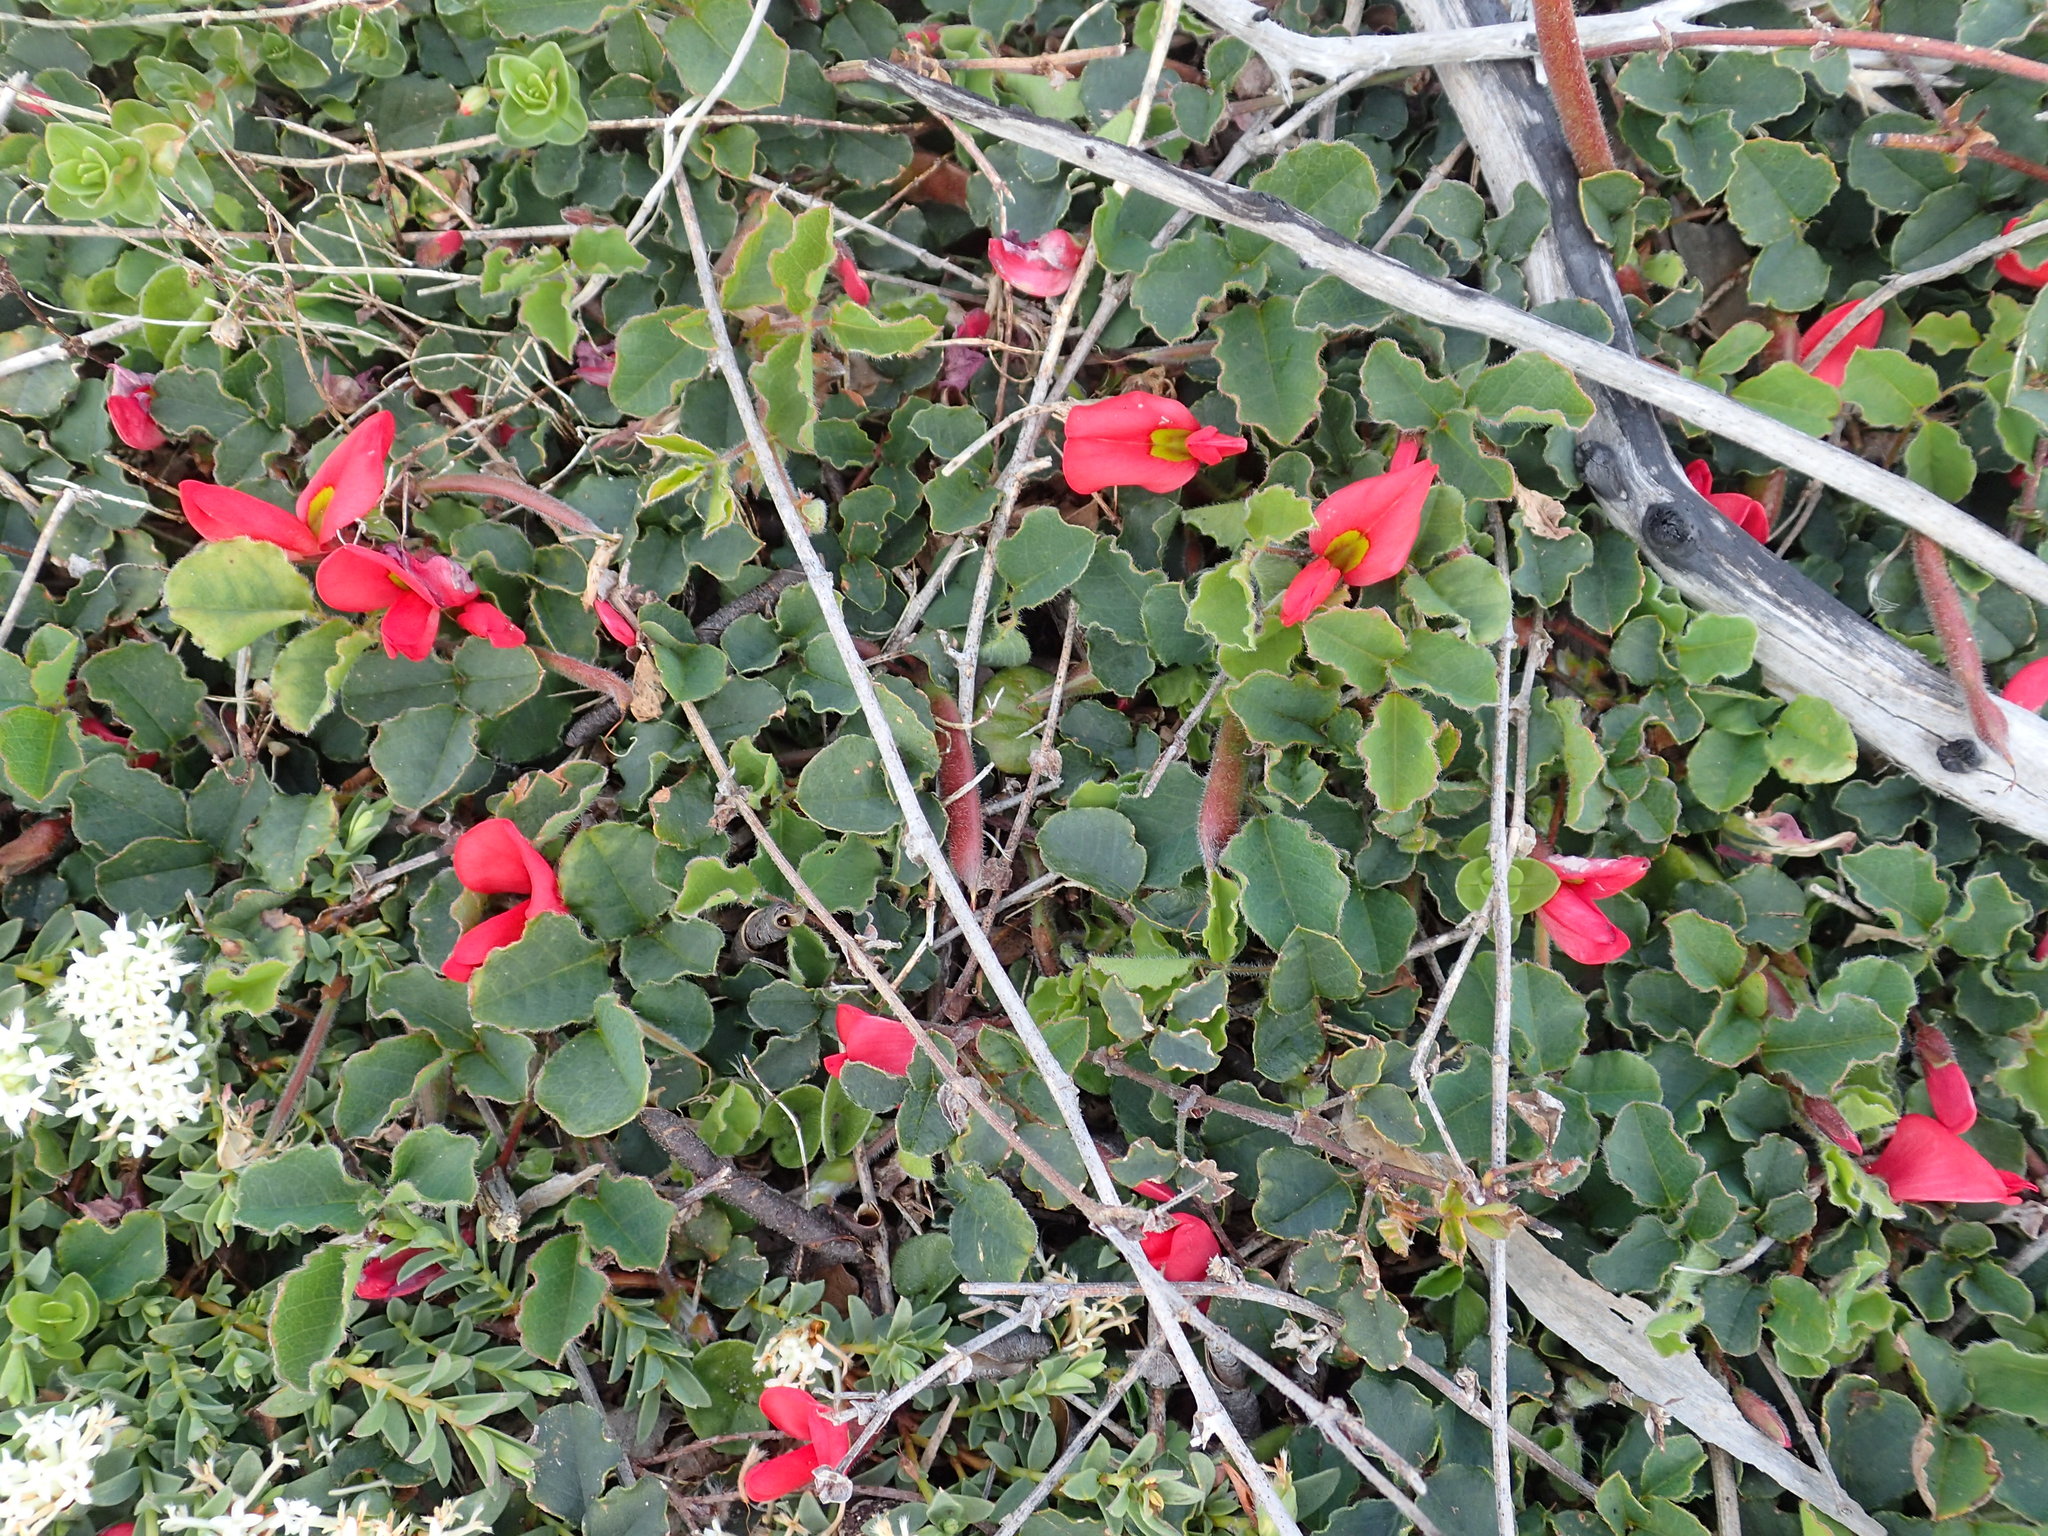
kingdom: Plantae
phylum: Tracheophyta
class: Magnoliopsida
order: Fabales
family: Fabaceae
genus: Kennedia
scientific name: Kennedia prostrata
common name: Running-postman
